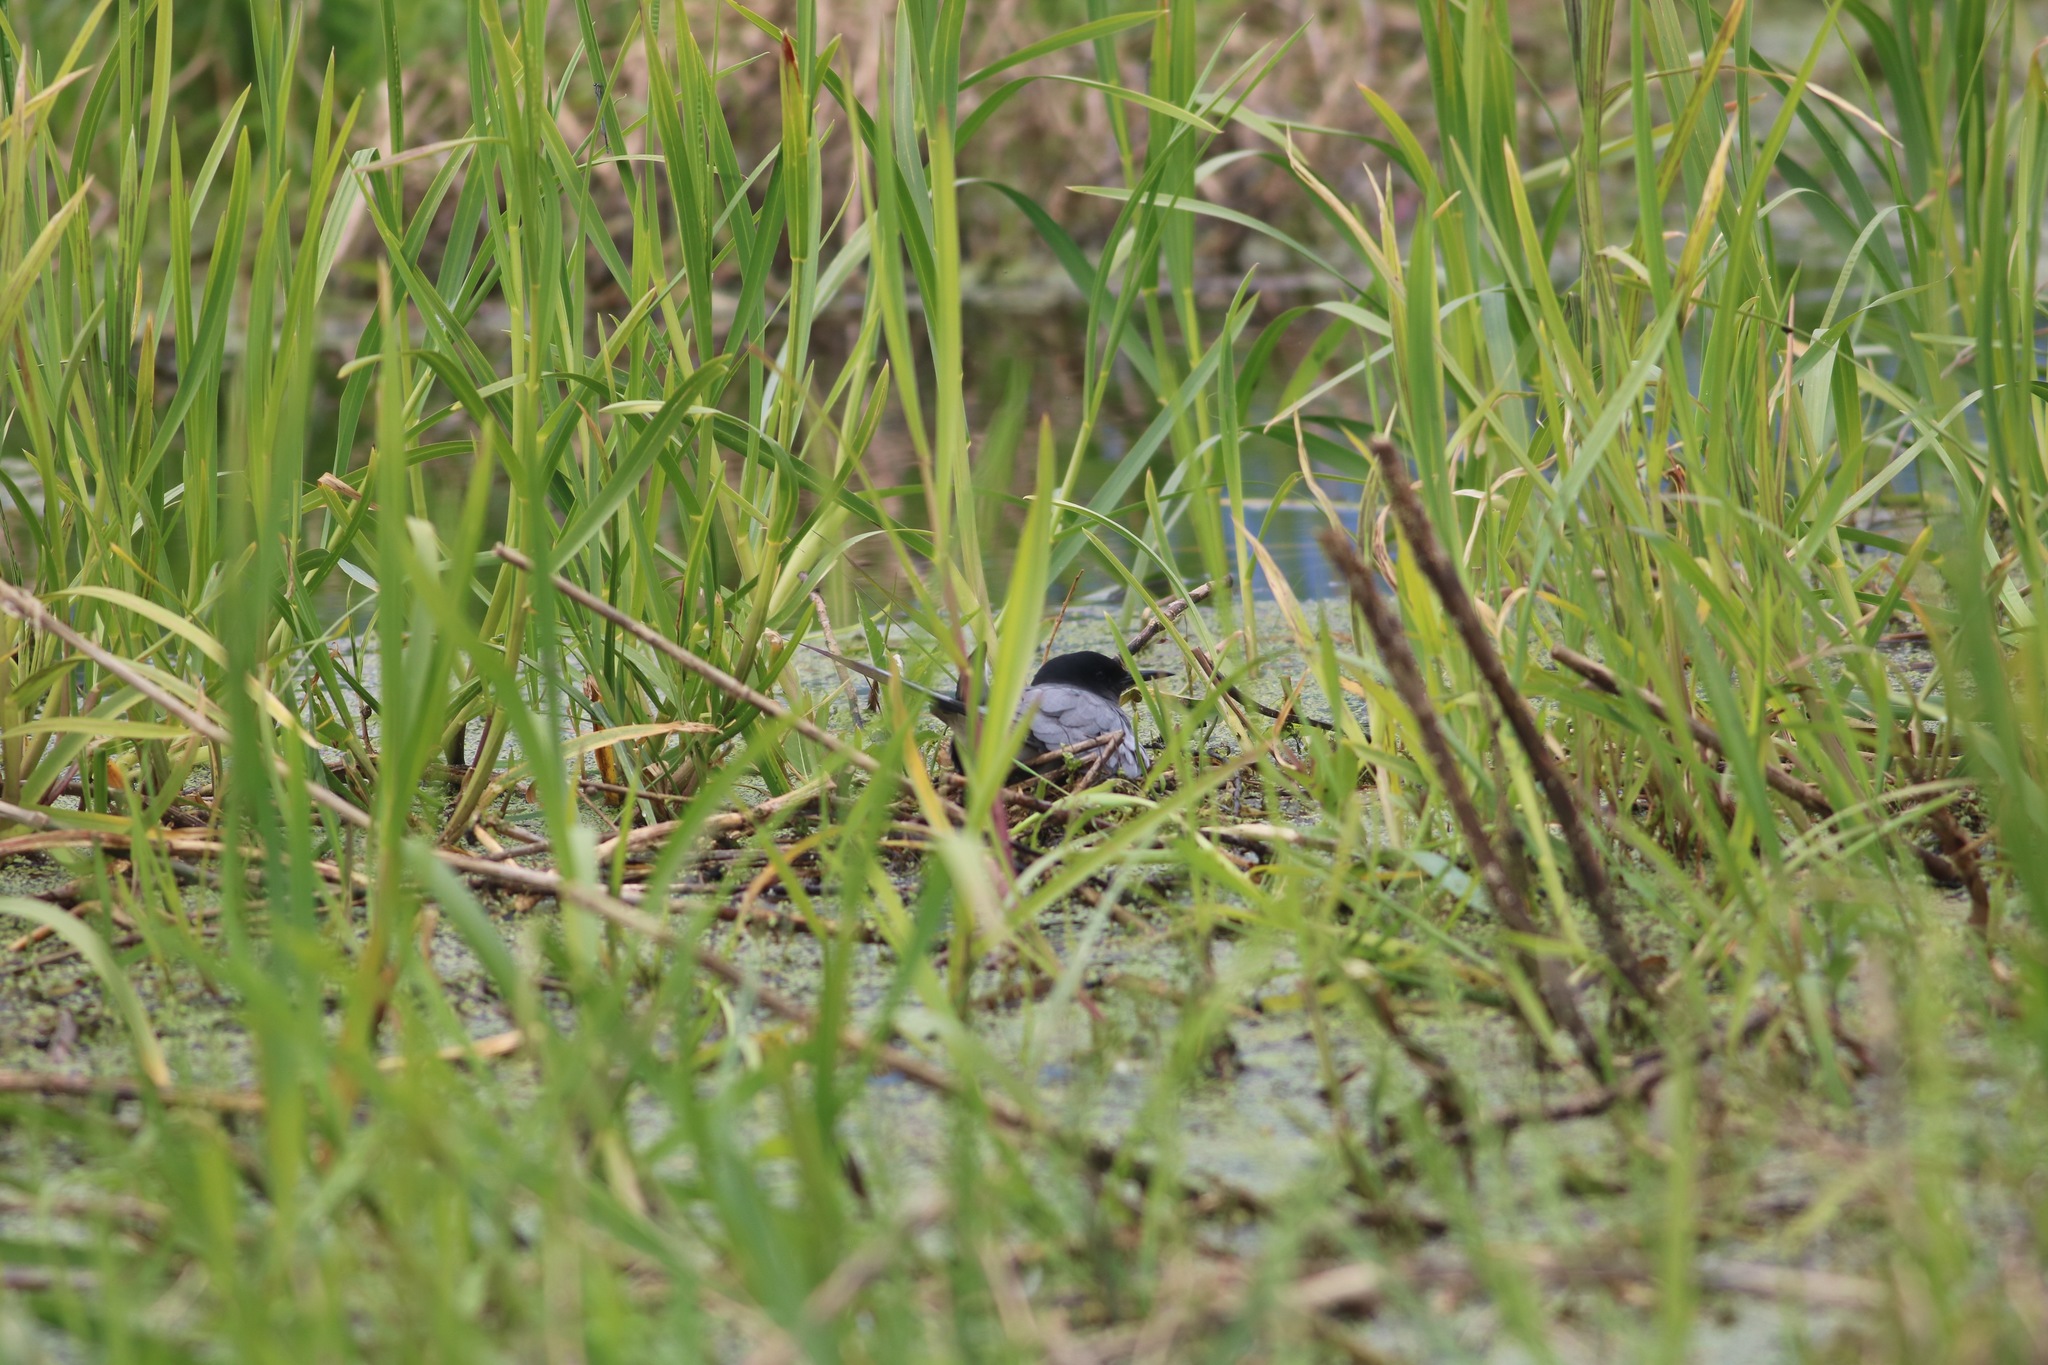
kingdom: Animalia
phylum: Chordata
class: Aves
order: Charadriiformes
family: Laridae
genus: Chlidonias
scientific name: Chlidonias niger
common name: Black tern
